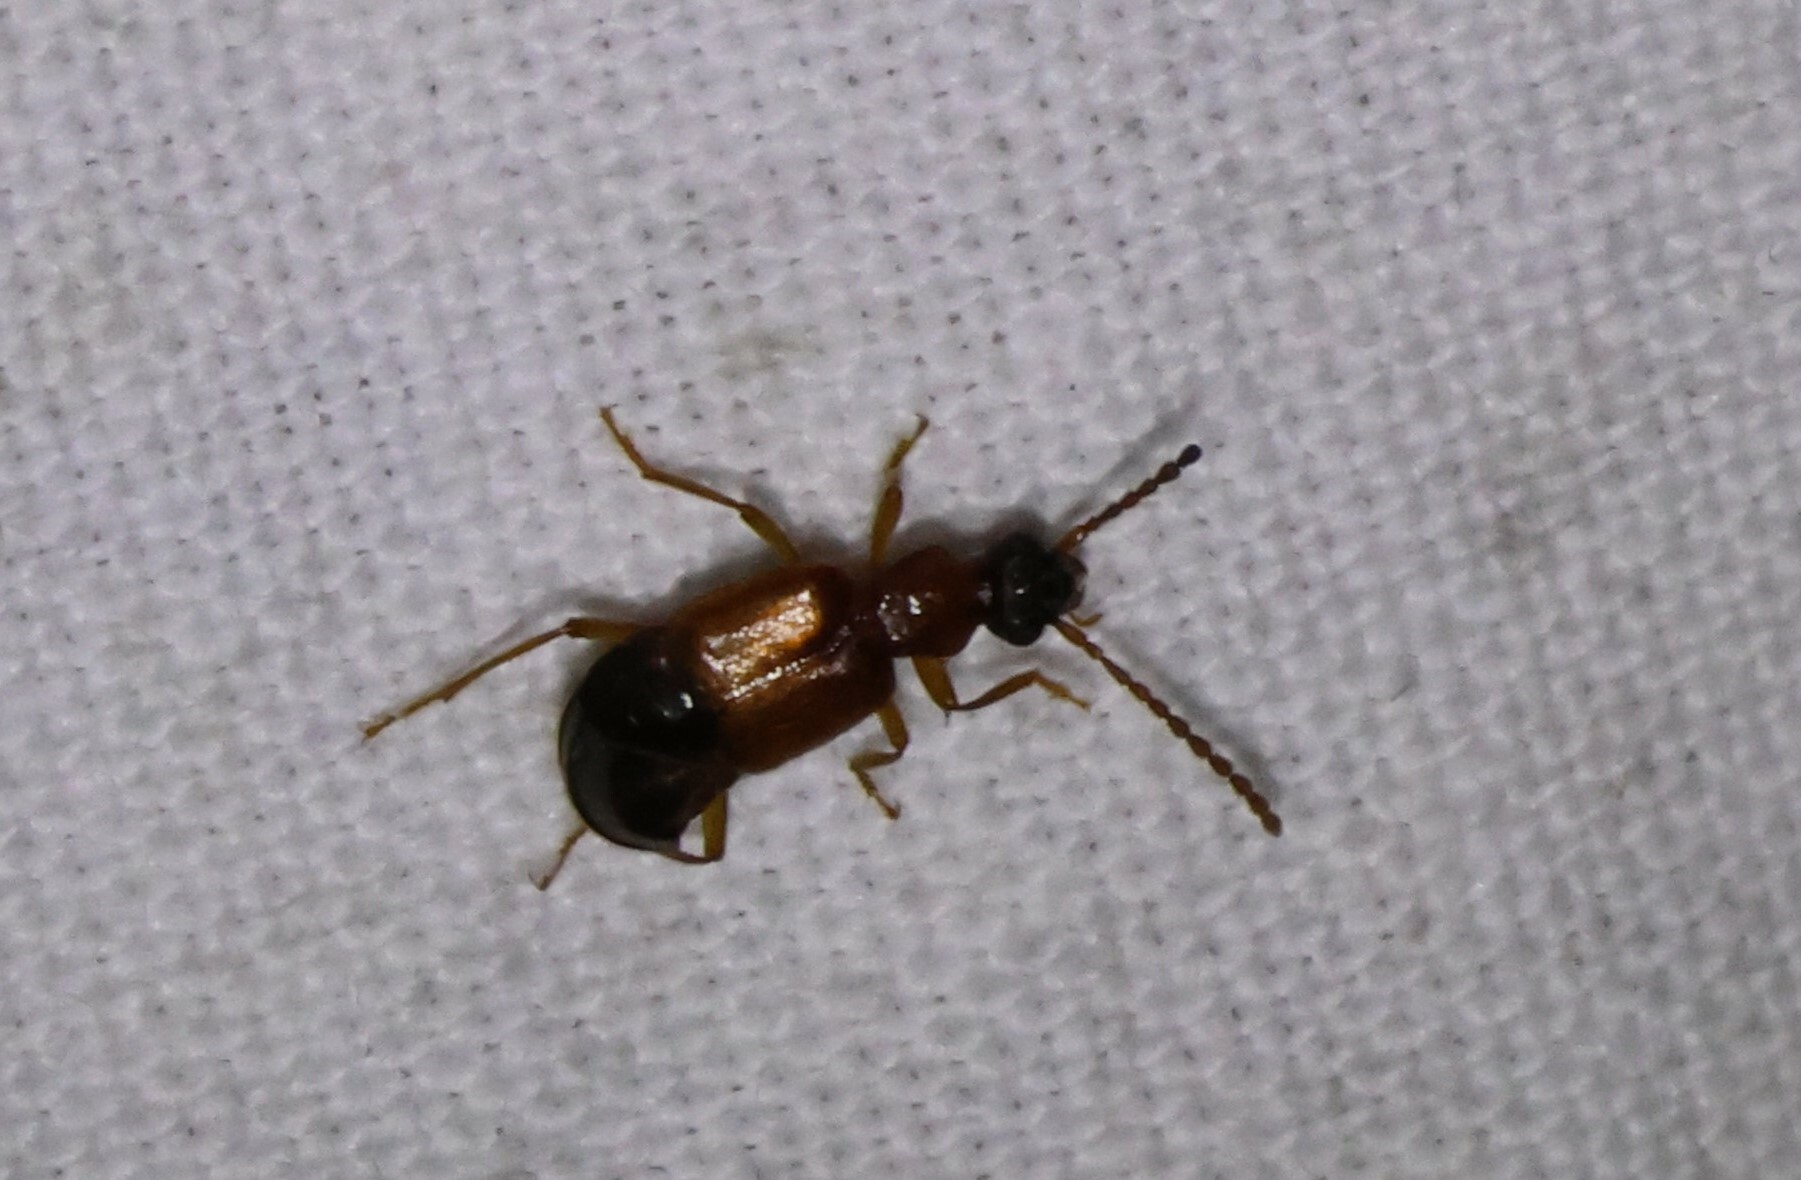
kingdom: Animalia
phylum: Arthropoda
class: Insecta
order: Coleoptera
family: Staphylinidae
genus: Deleaster
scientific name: Deleaster dichrous
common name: Rove beetle
